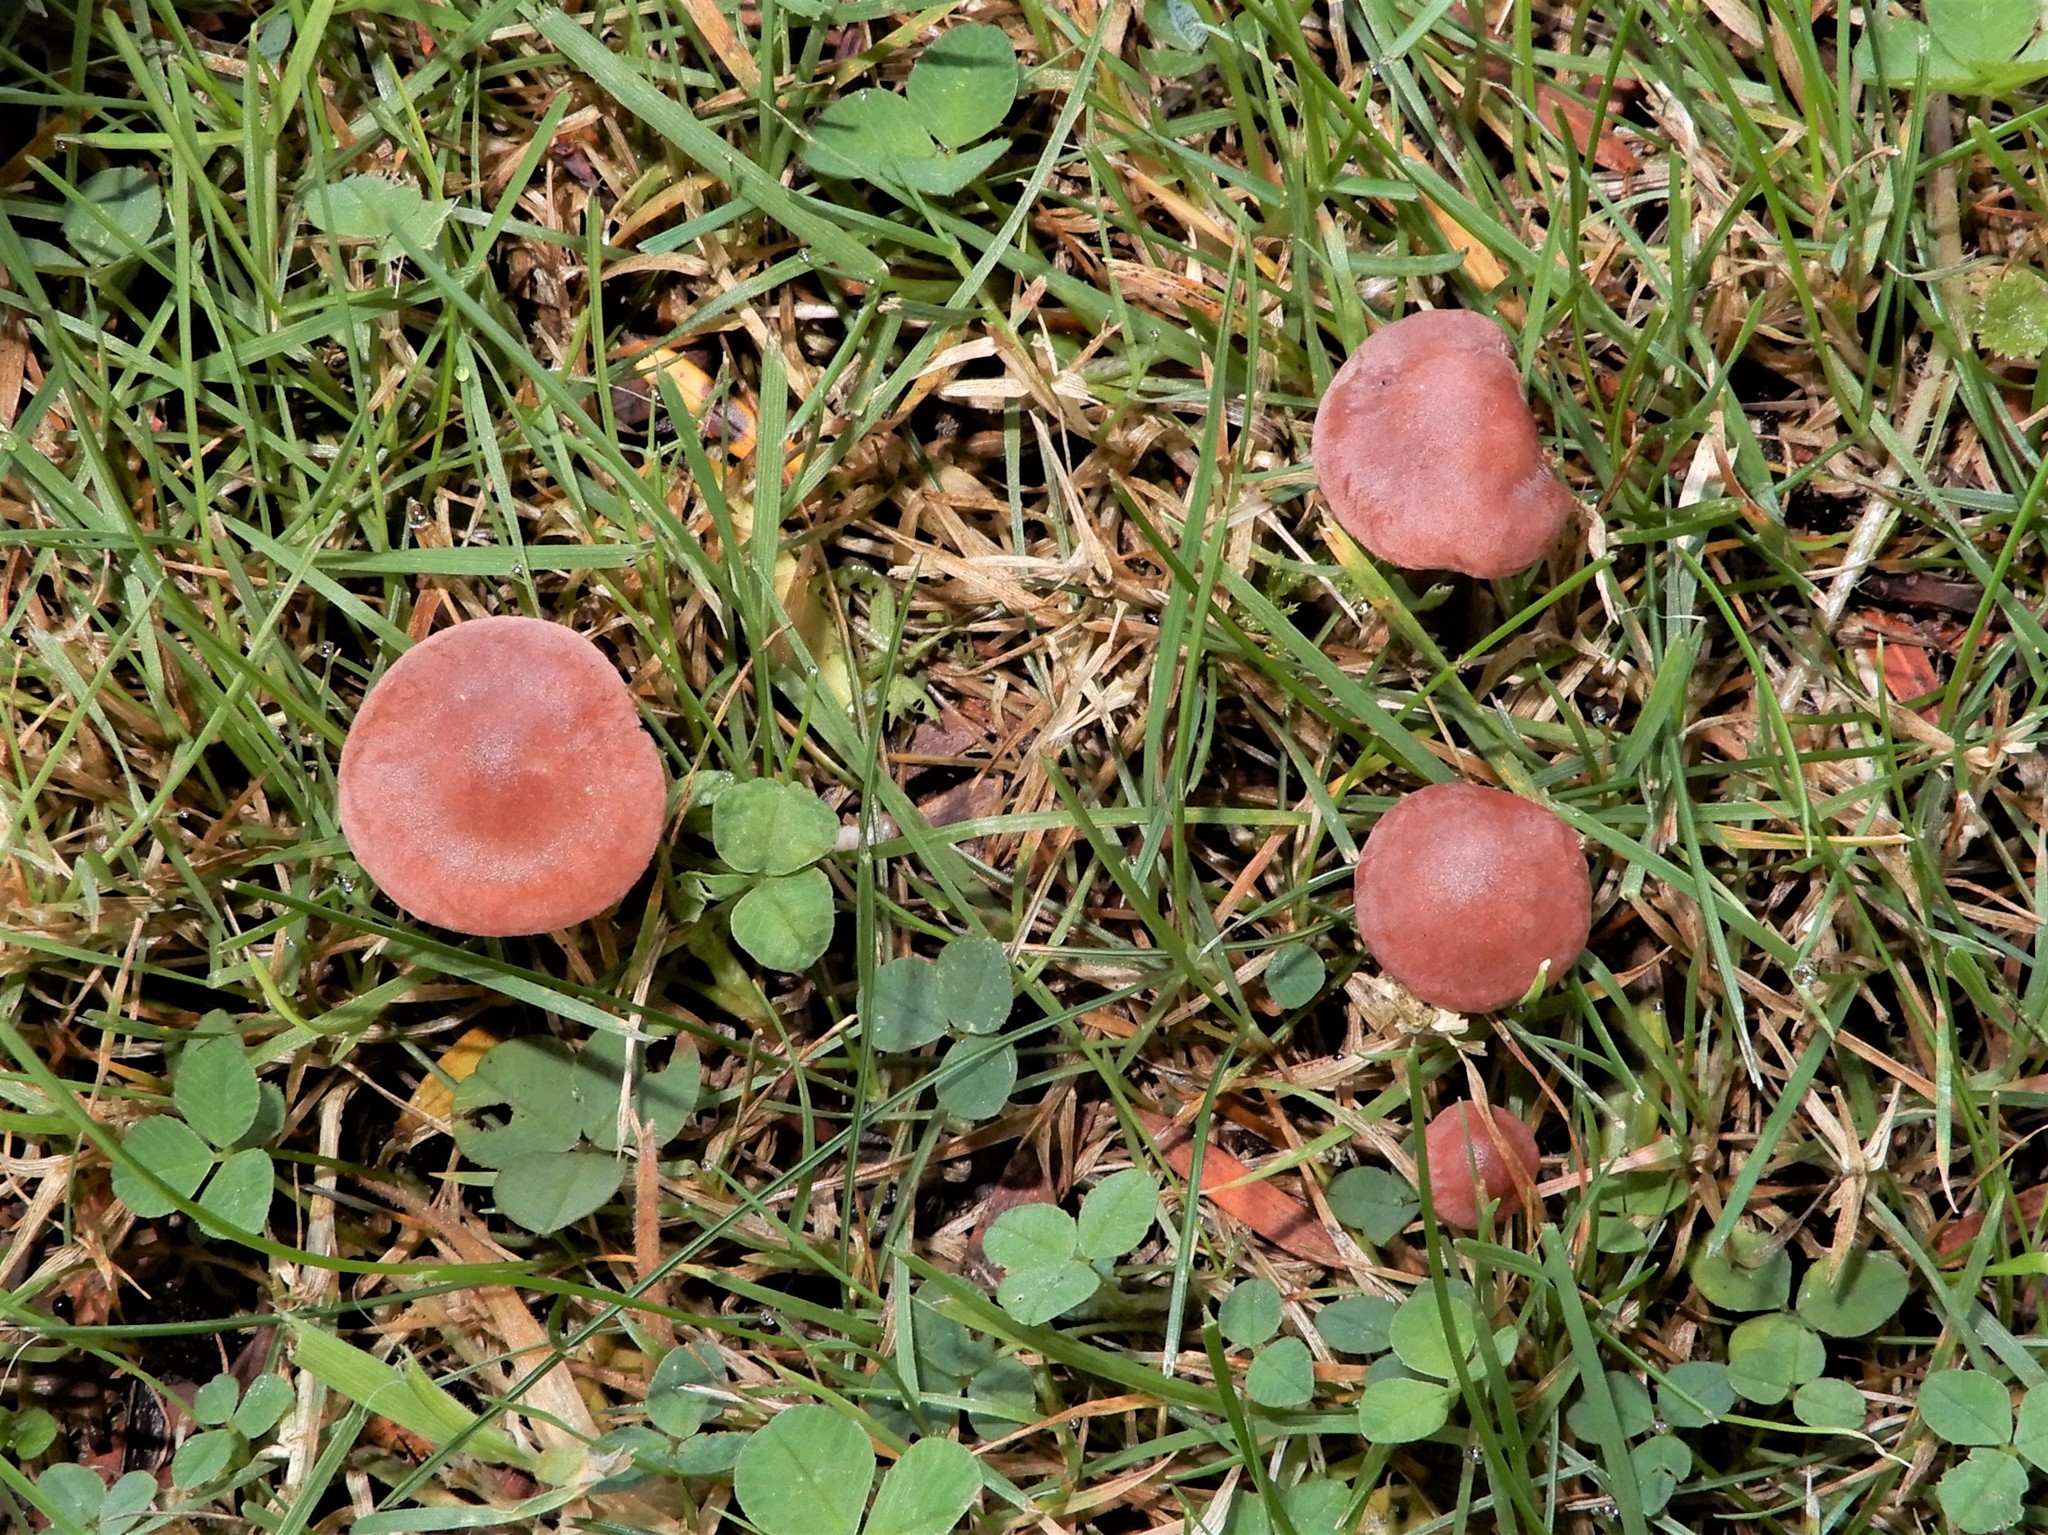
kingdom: Fungi
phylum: Basidiomycota
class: Agaricomycetes
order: Agaricales
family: Lyophyllaceae
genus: Calocybe
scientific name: Calocybe carnea
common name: Pink domecap
